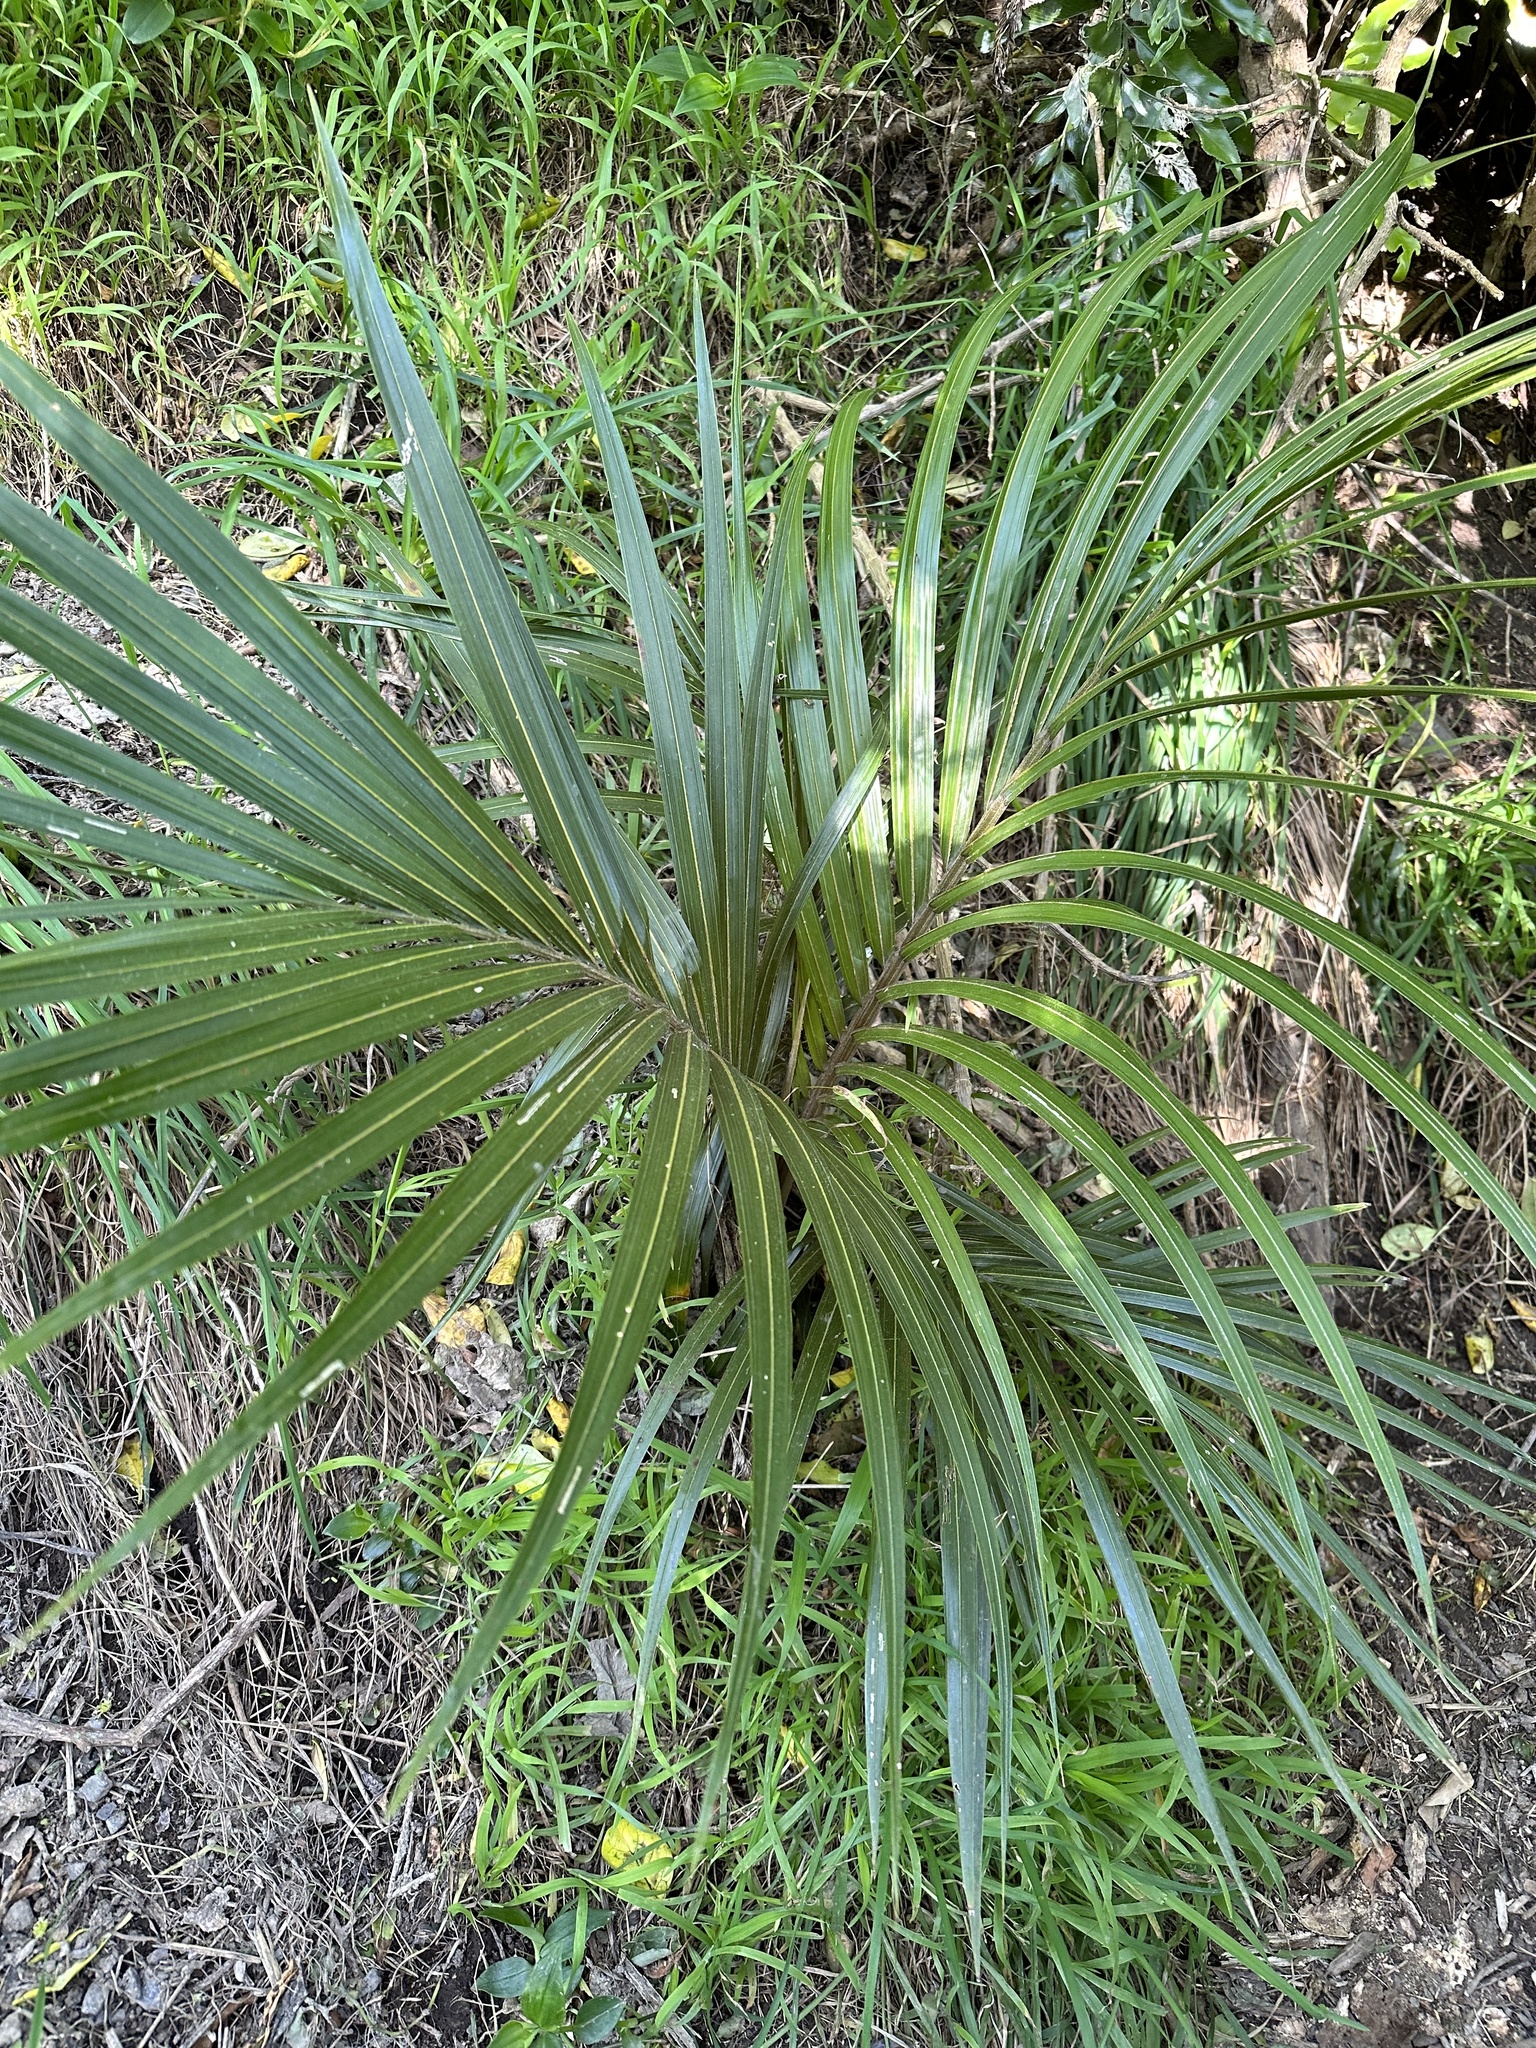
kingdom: Plantae
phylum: Tracheophyta
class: Liliopsida
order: Arecales
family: Arecaceae
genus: Rhopalostylis
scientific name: Rhopalostylis sapida
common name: Feather-duster palm
